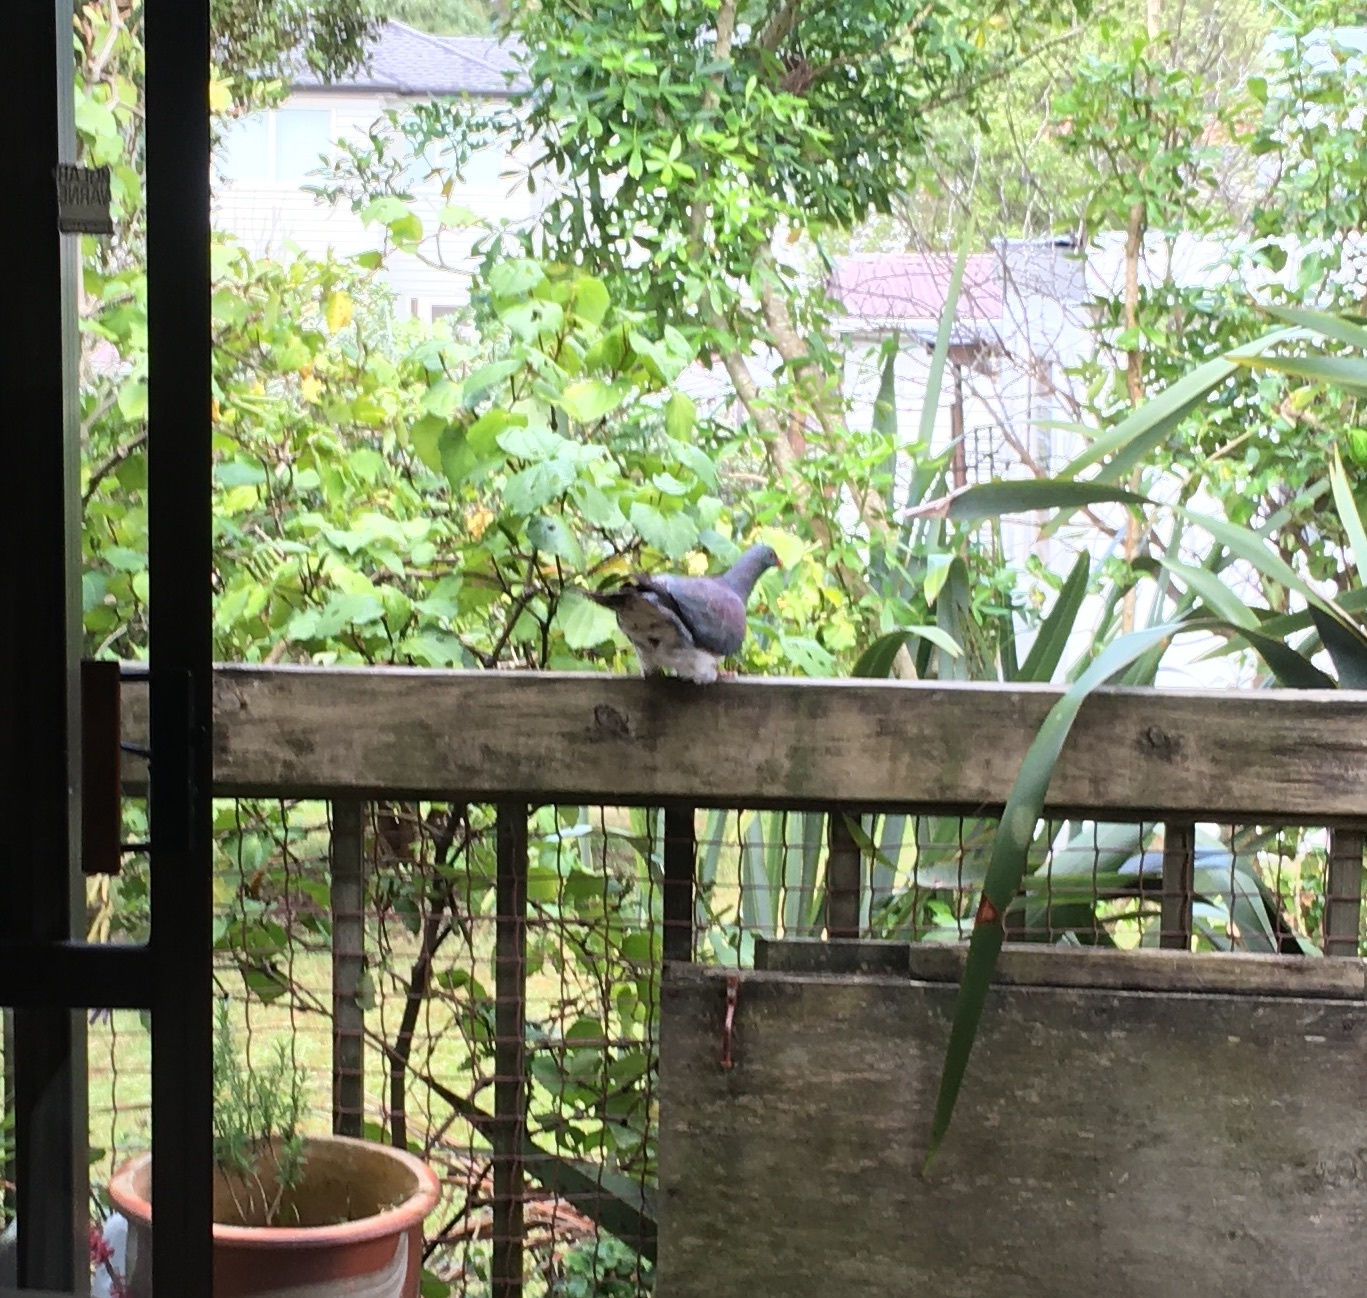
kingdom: Animalia
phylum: Chordata
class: Aves
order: Columbiformes
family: Columbidae
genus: Hemiphaga
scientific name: Hemiphaga novaeseelandiae
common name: New zealand pigeon
